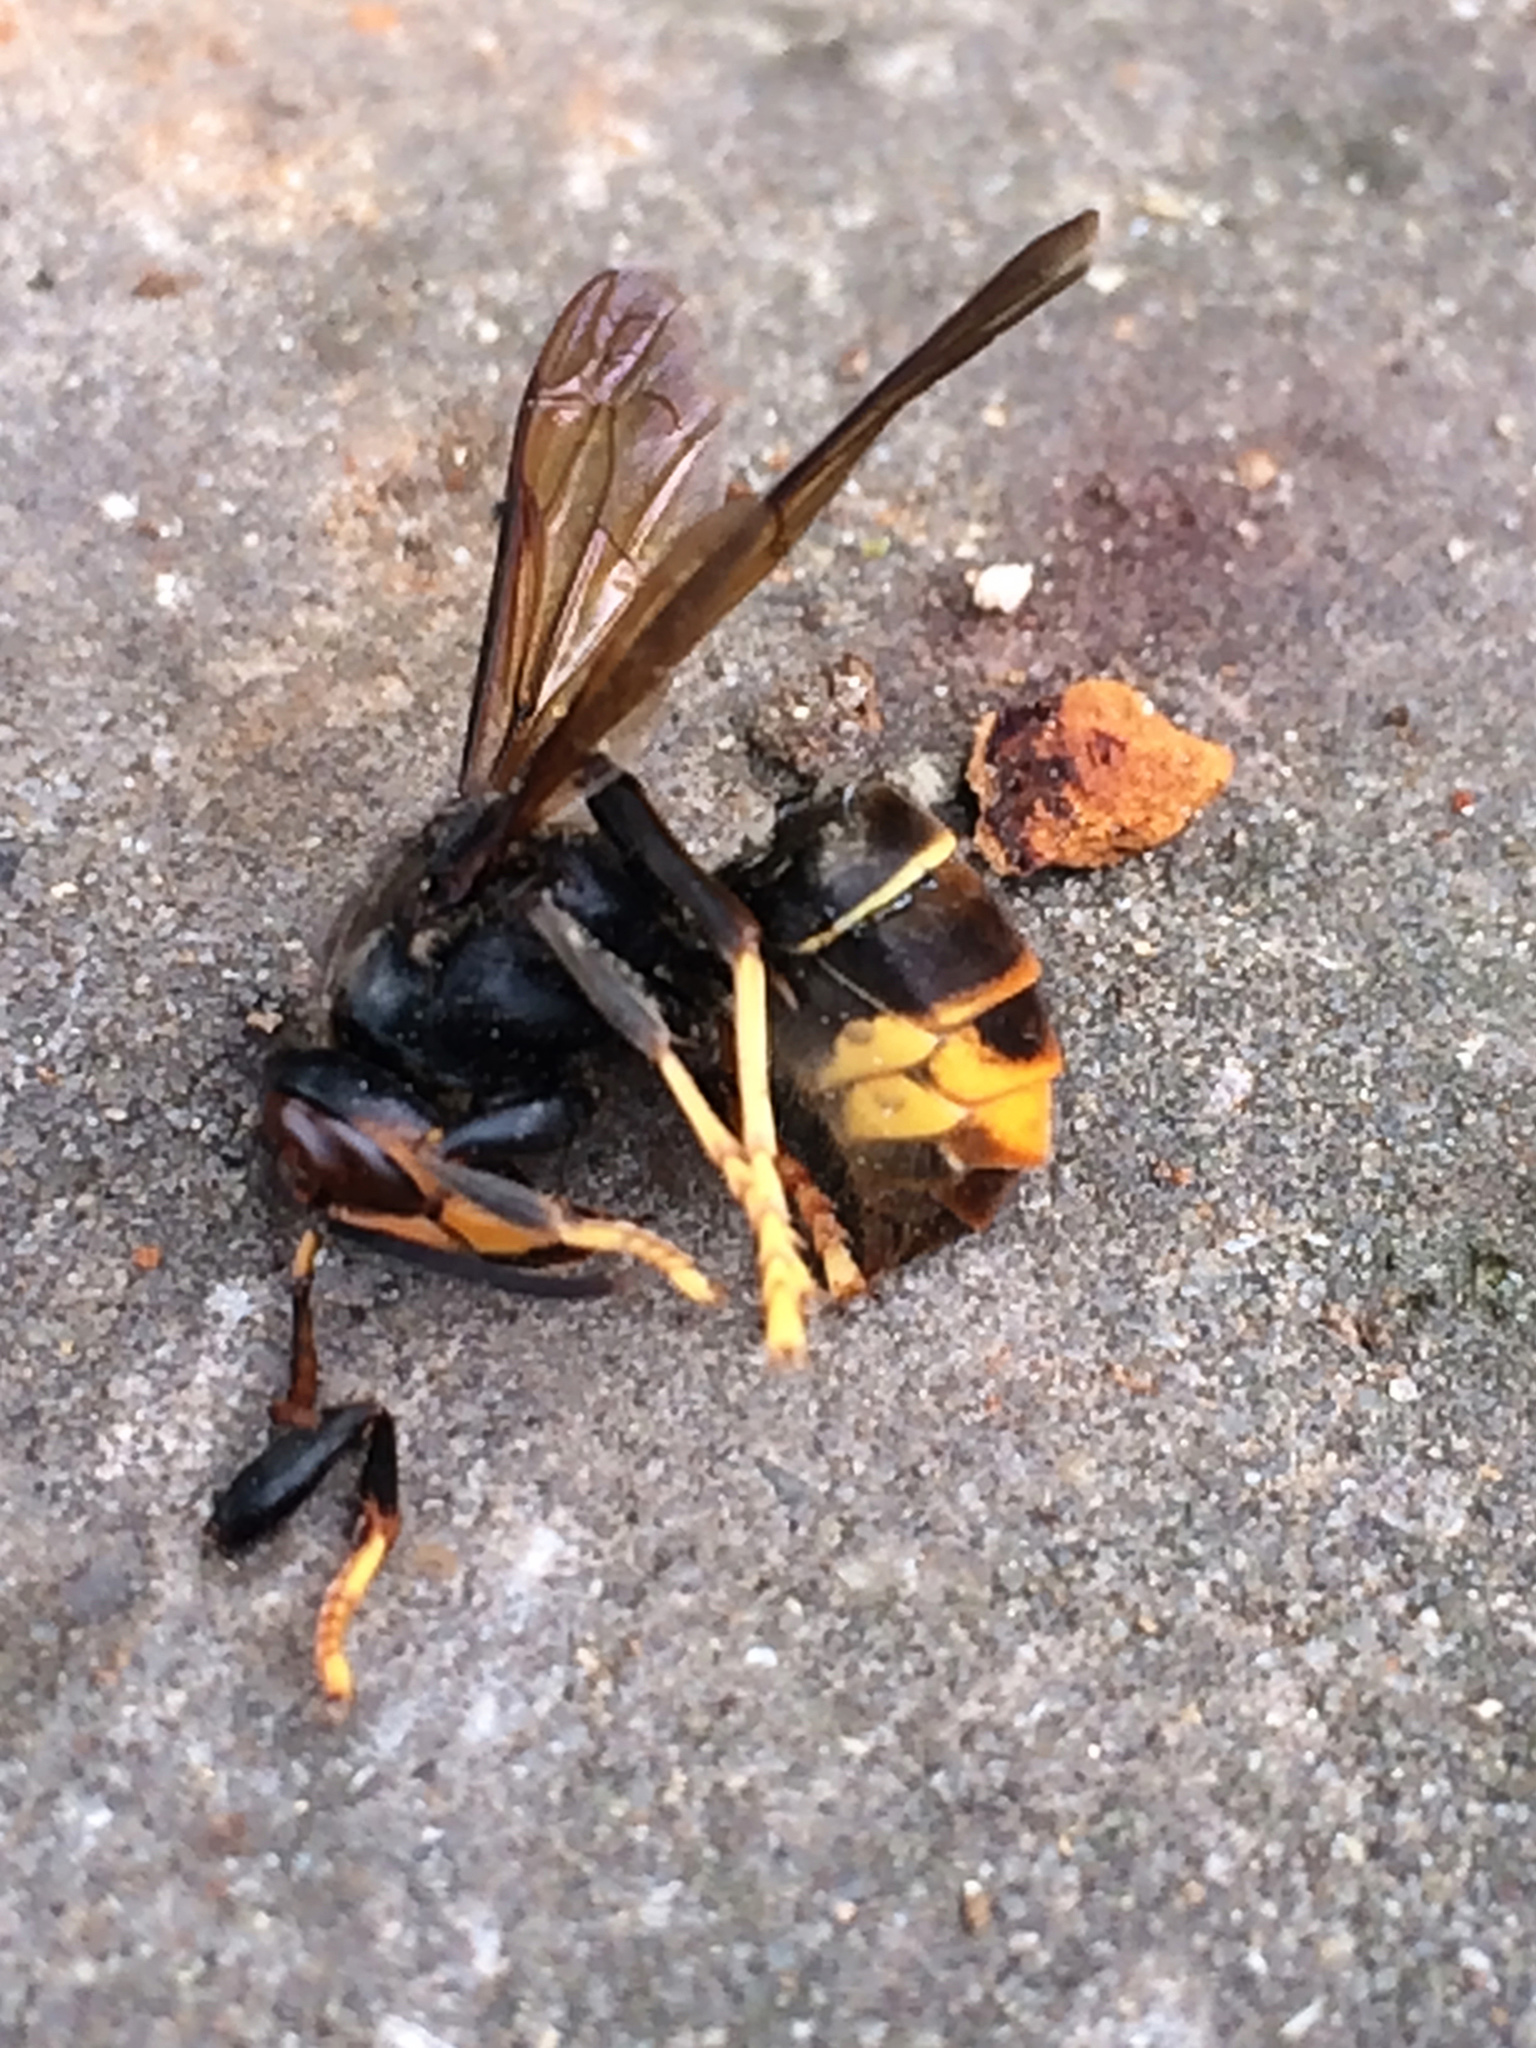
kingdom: Animalia
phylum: Arthropoda
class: Insecta
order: Hymenoptera
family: Vespidae
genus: Vespa
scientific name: Vespa velutina
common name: Asian hornet
